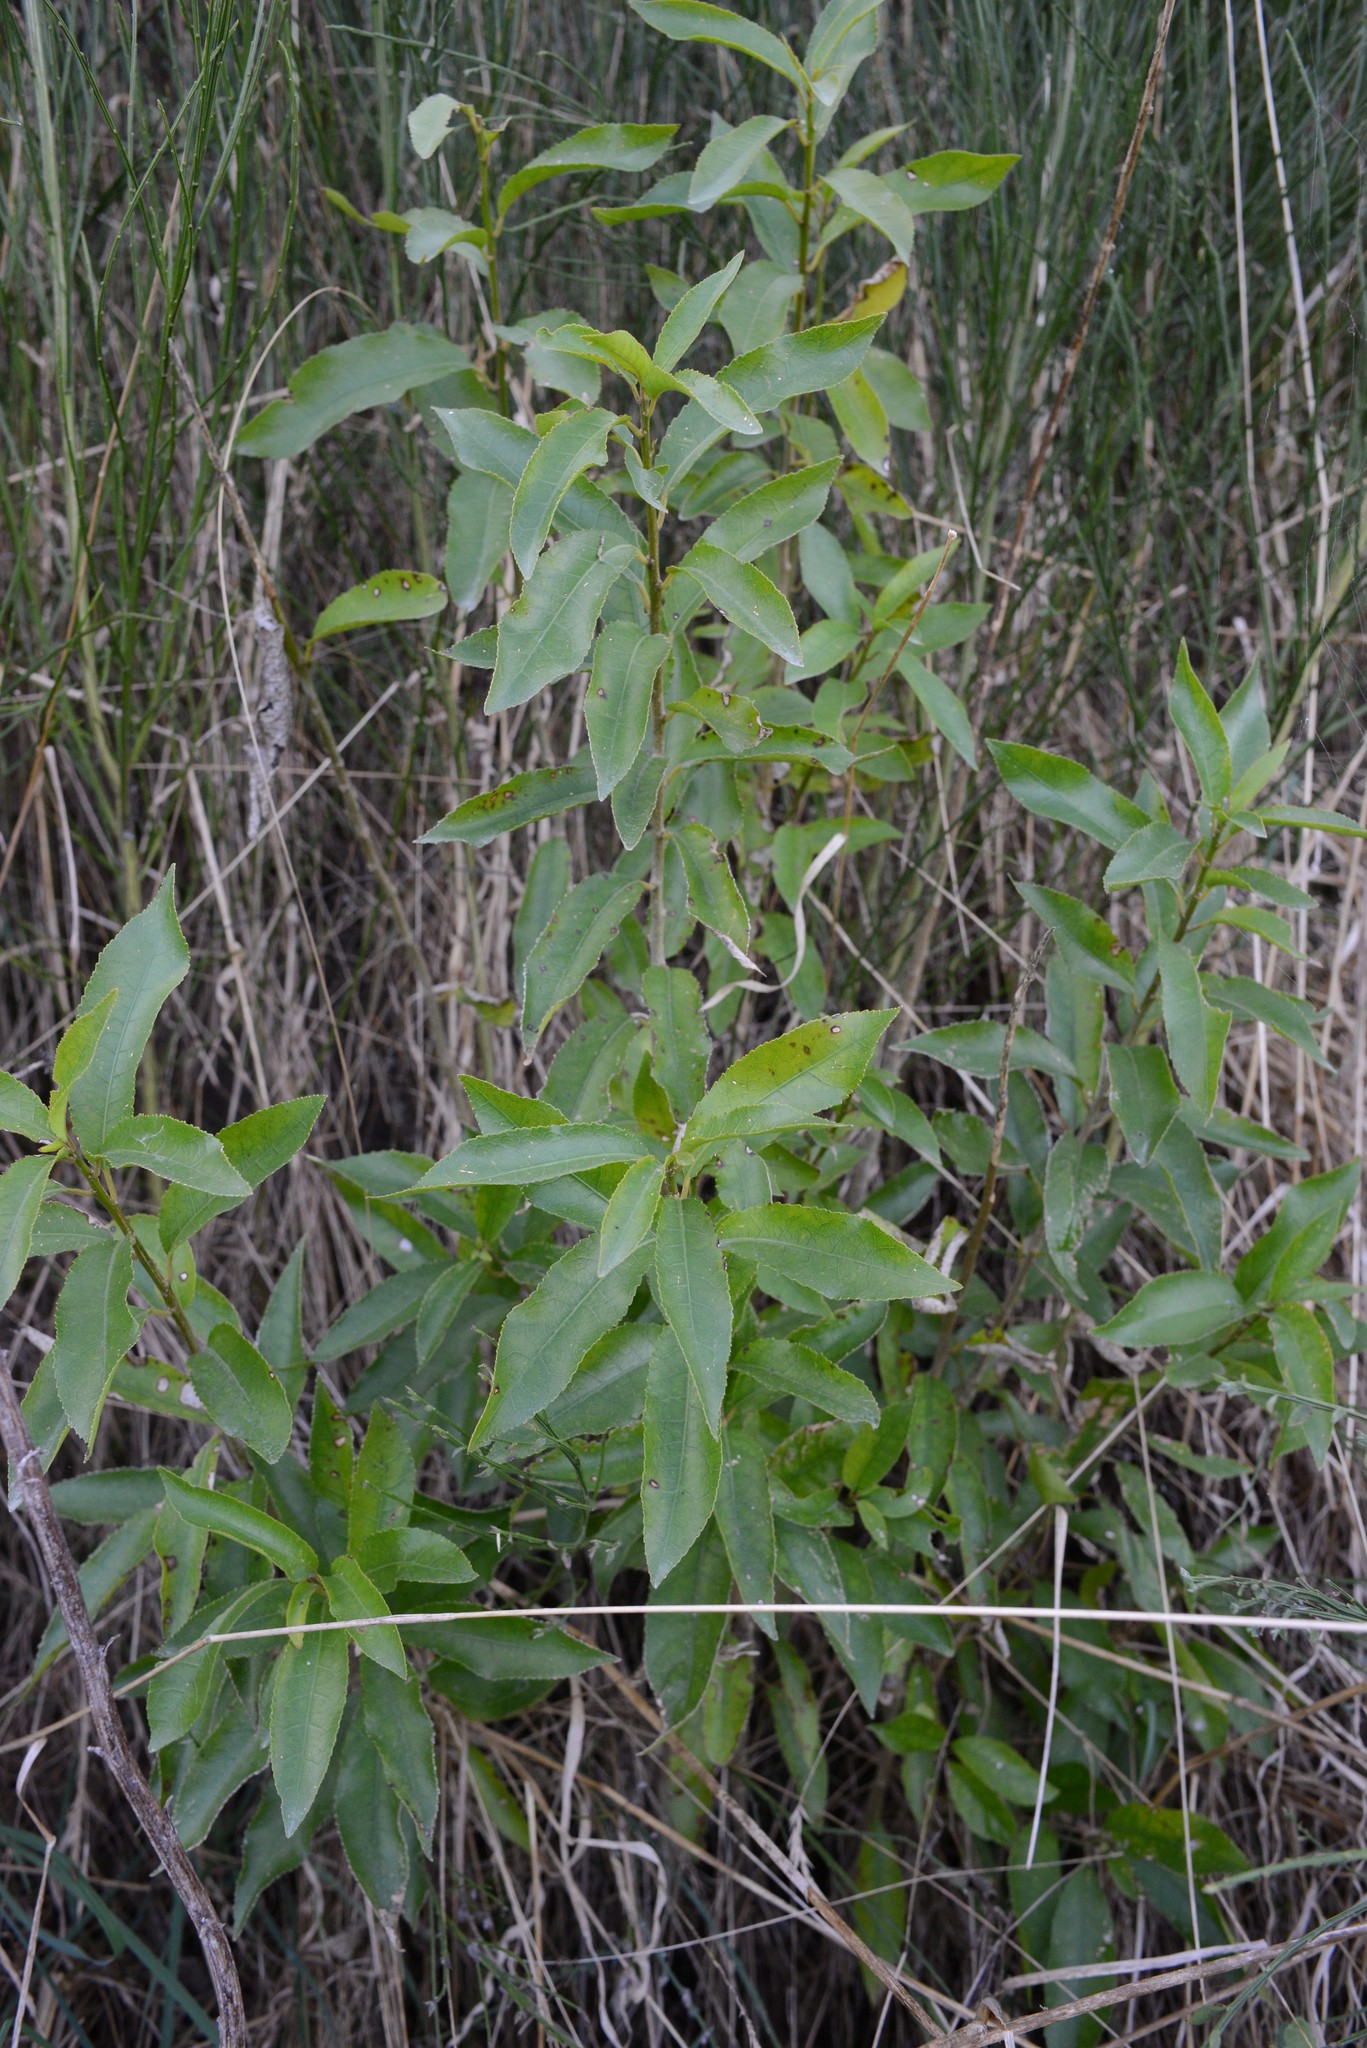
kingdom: Plantae
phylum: Tracheophyta
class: Magnoliopsida
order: Malpighiales
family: Violaceae
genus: Melicytus
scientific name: Melicytus ramiflorus
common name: Mahoe
